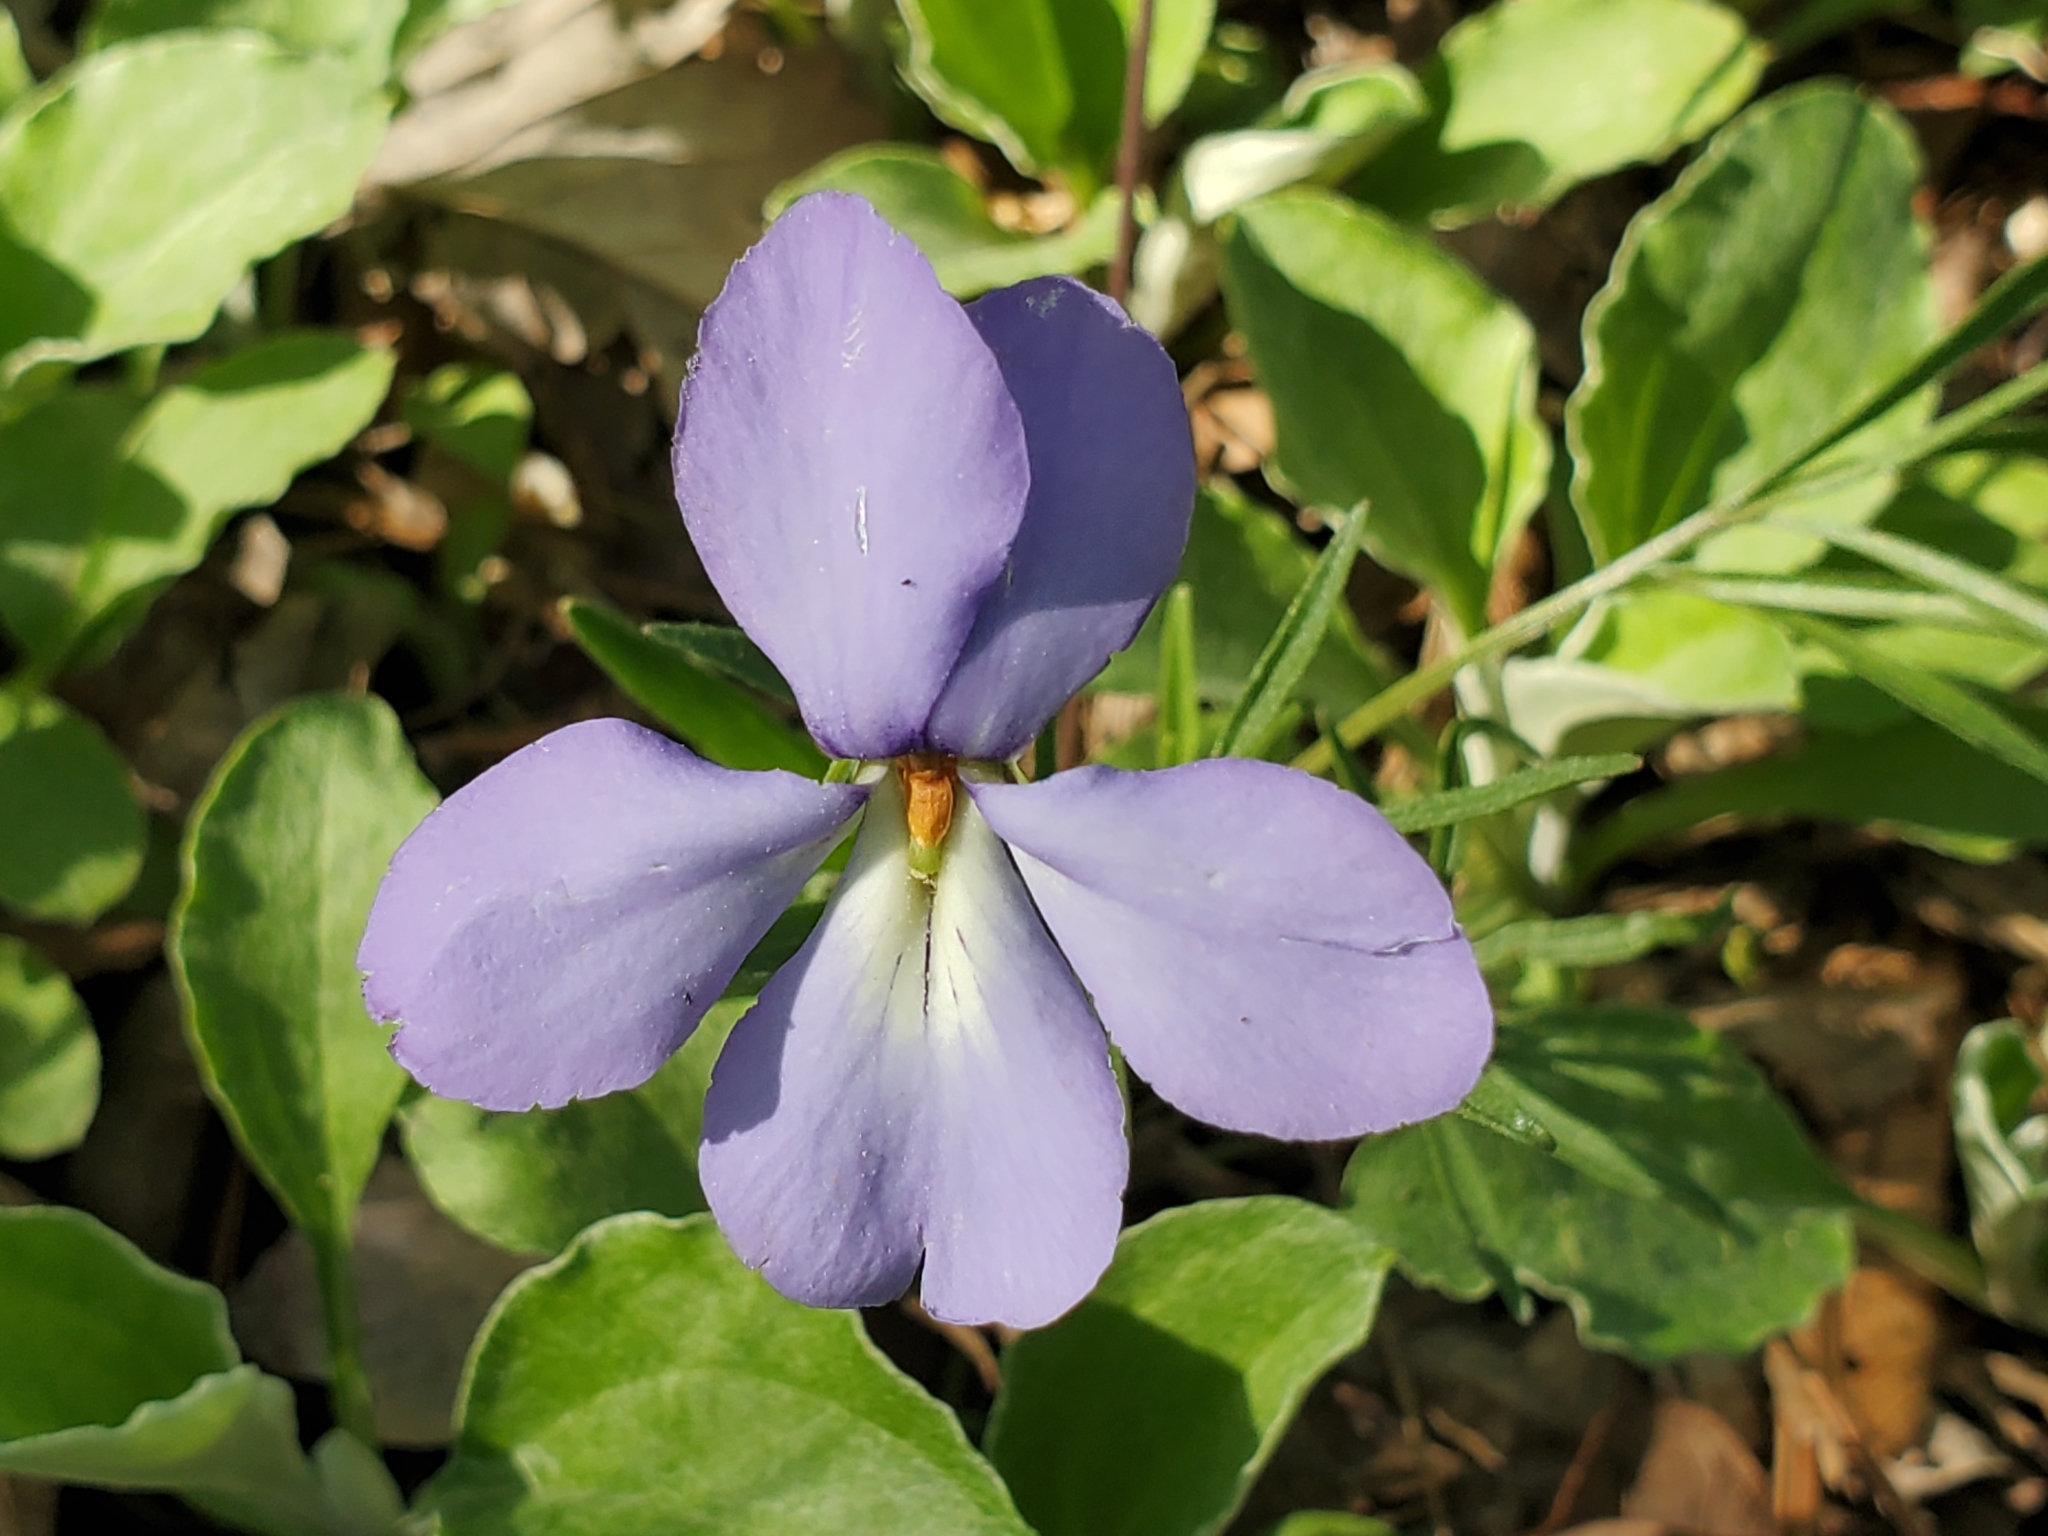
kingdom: Plantae
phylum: Tracheophyta
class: Magnoliopsida
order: Malpighiales
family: Violaceae
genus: Viola
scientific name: Viola pedata
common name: Pansy violet
